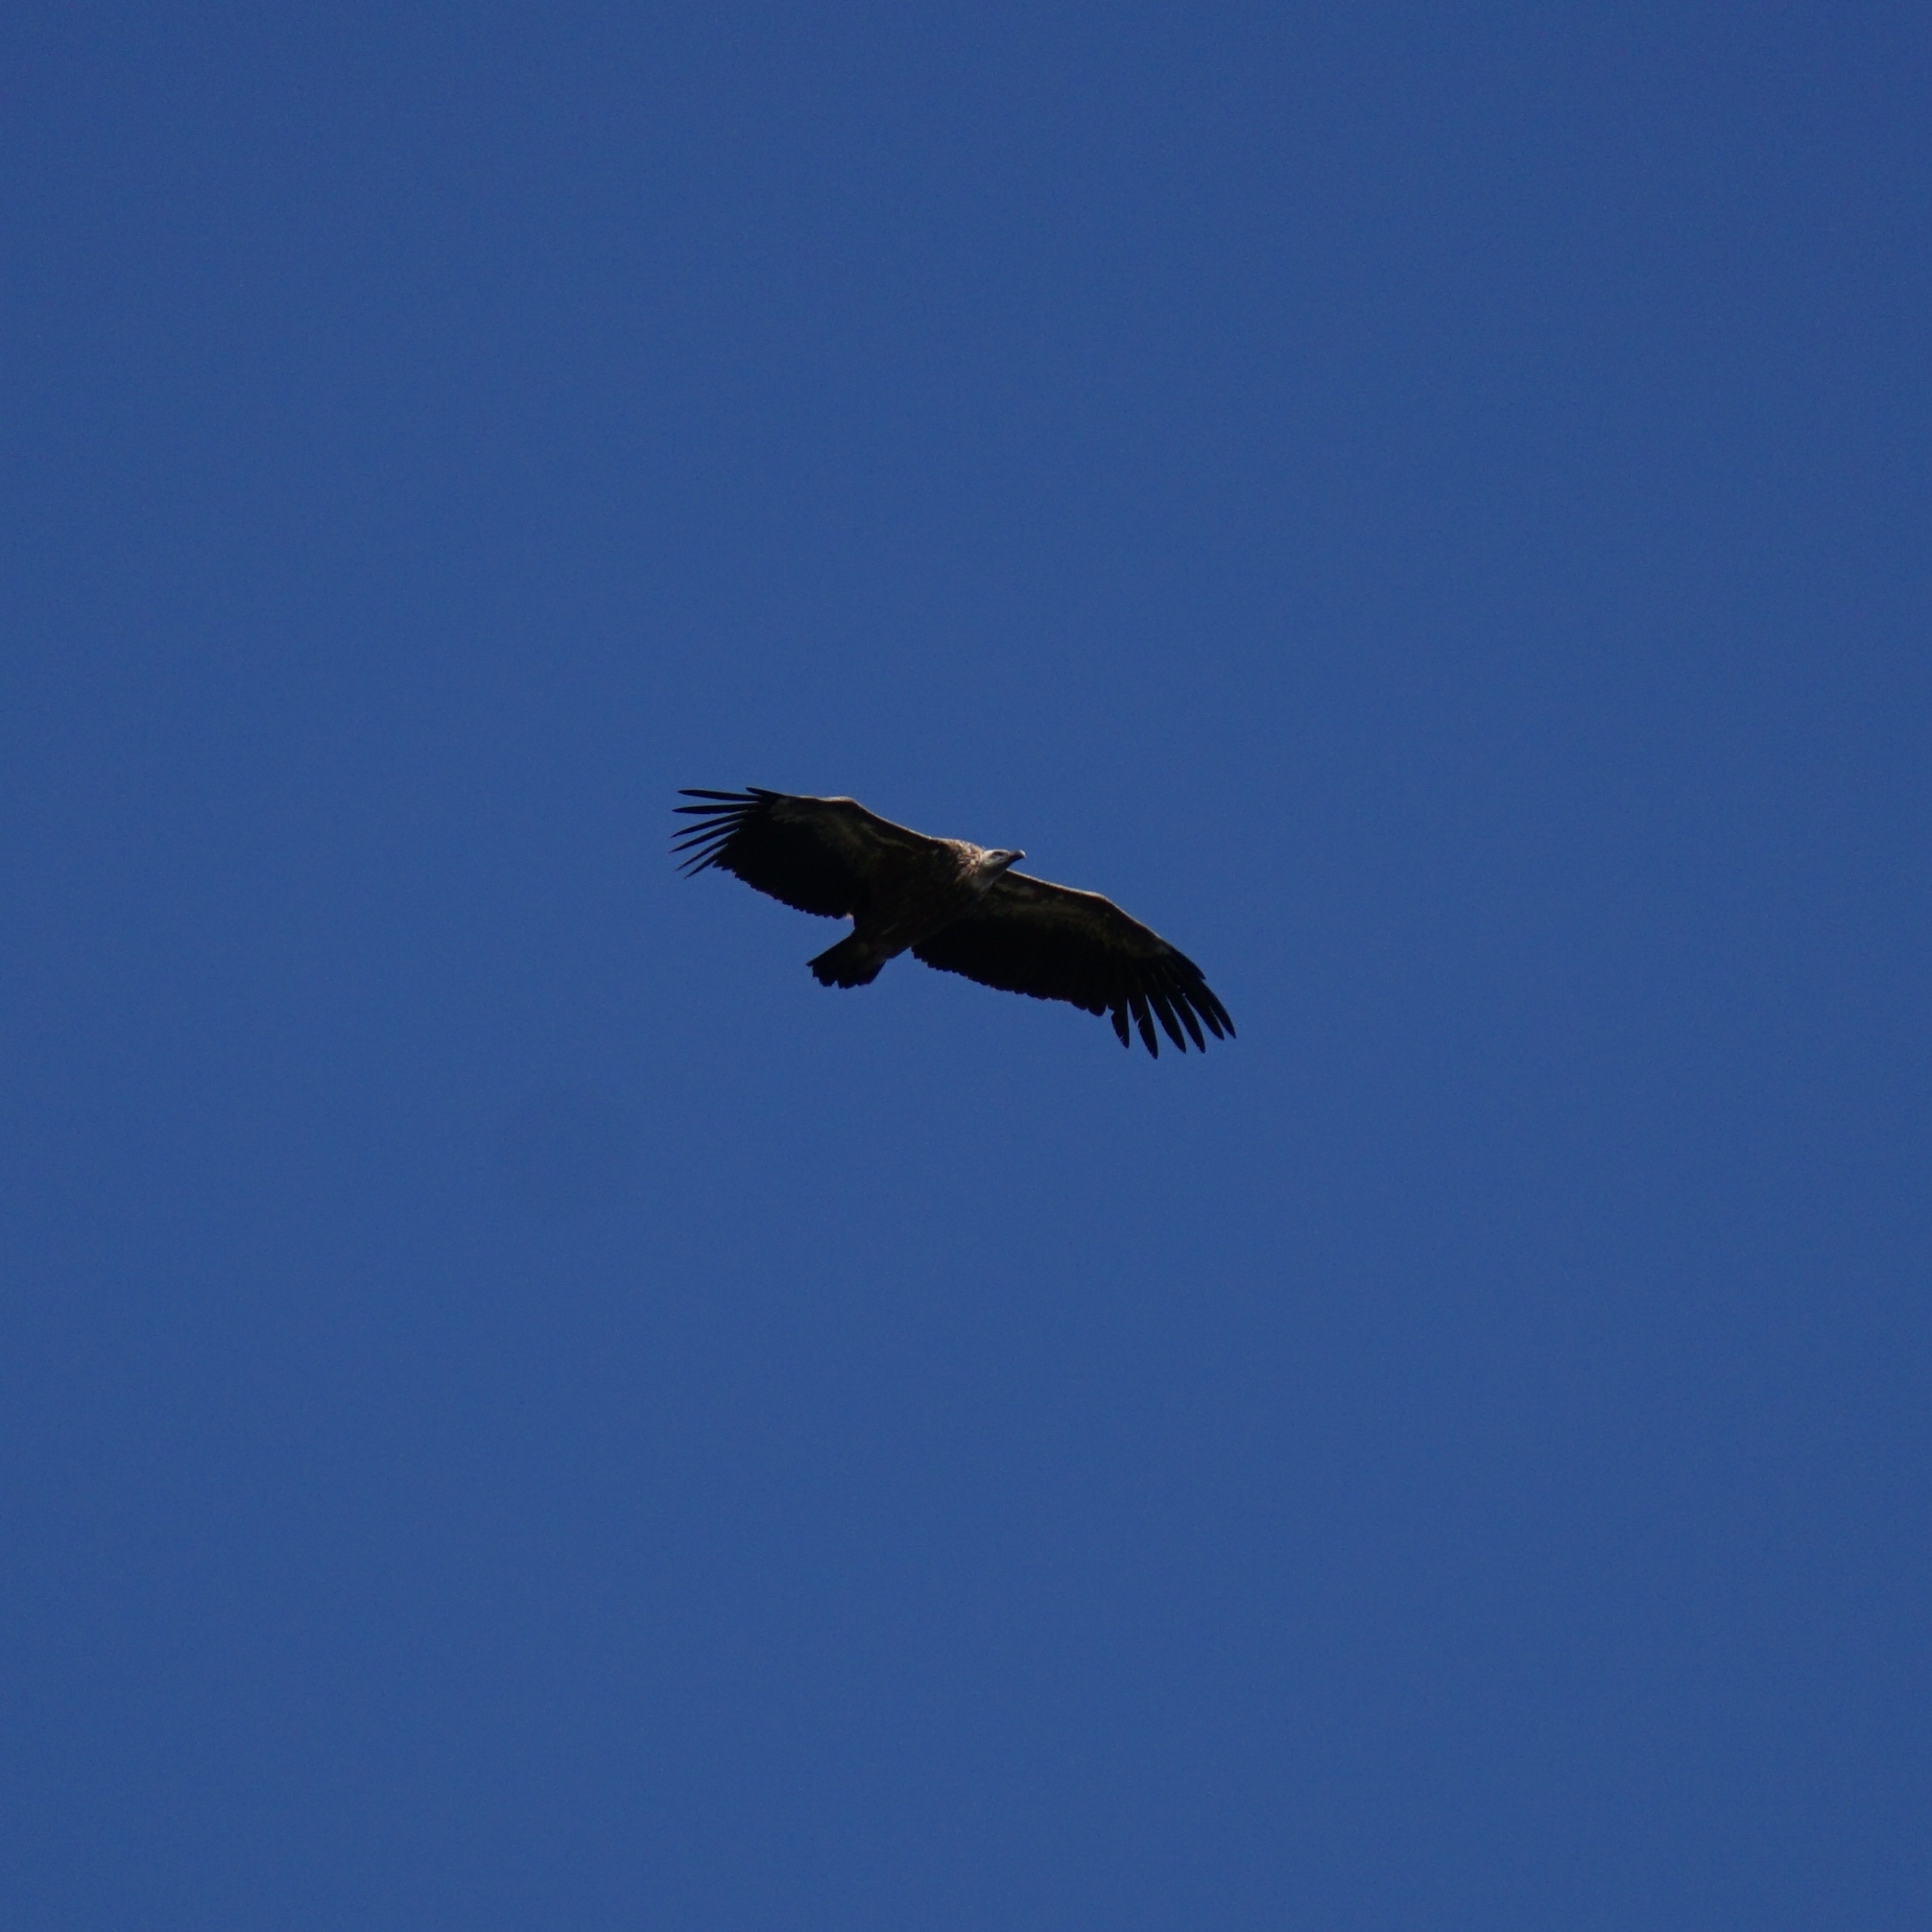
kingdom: Animalia
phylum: Chordata
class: Aves
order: Accipitriformes
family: Accipitridae
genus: Gyps
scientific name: Gyps fulvus
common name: Griffon vulture
